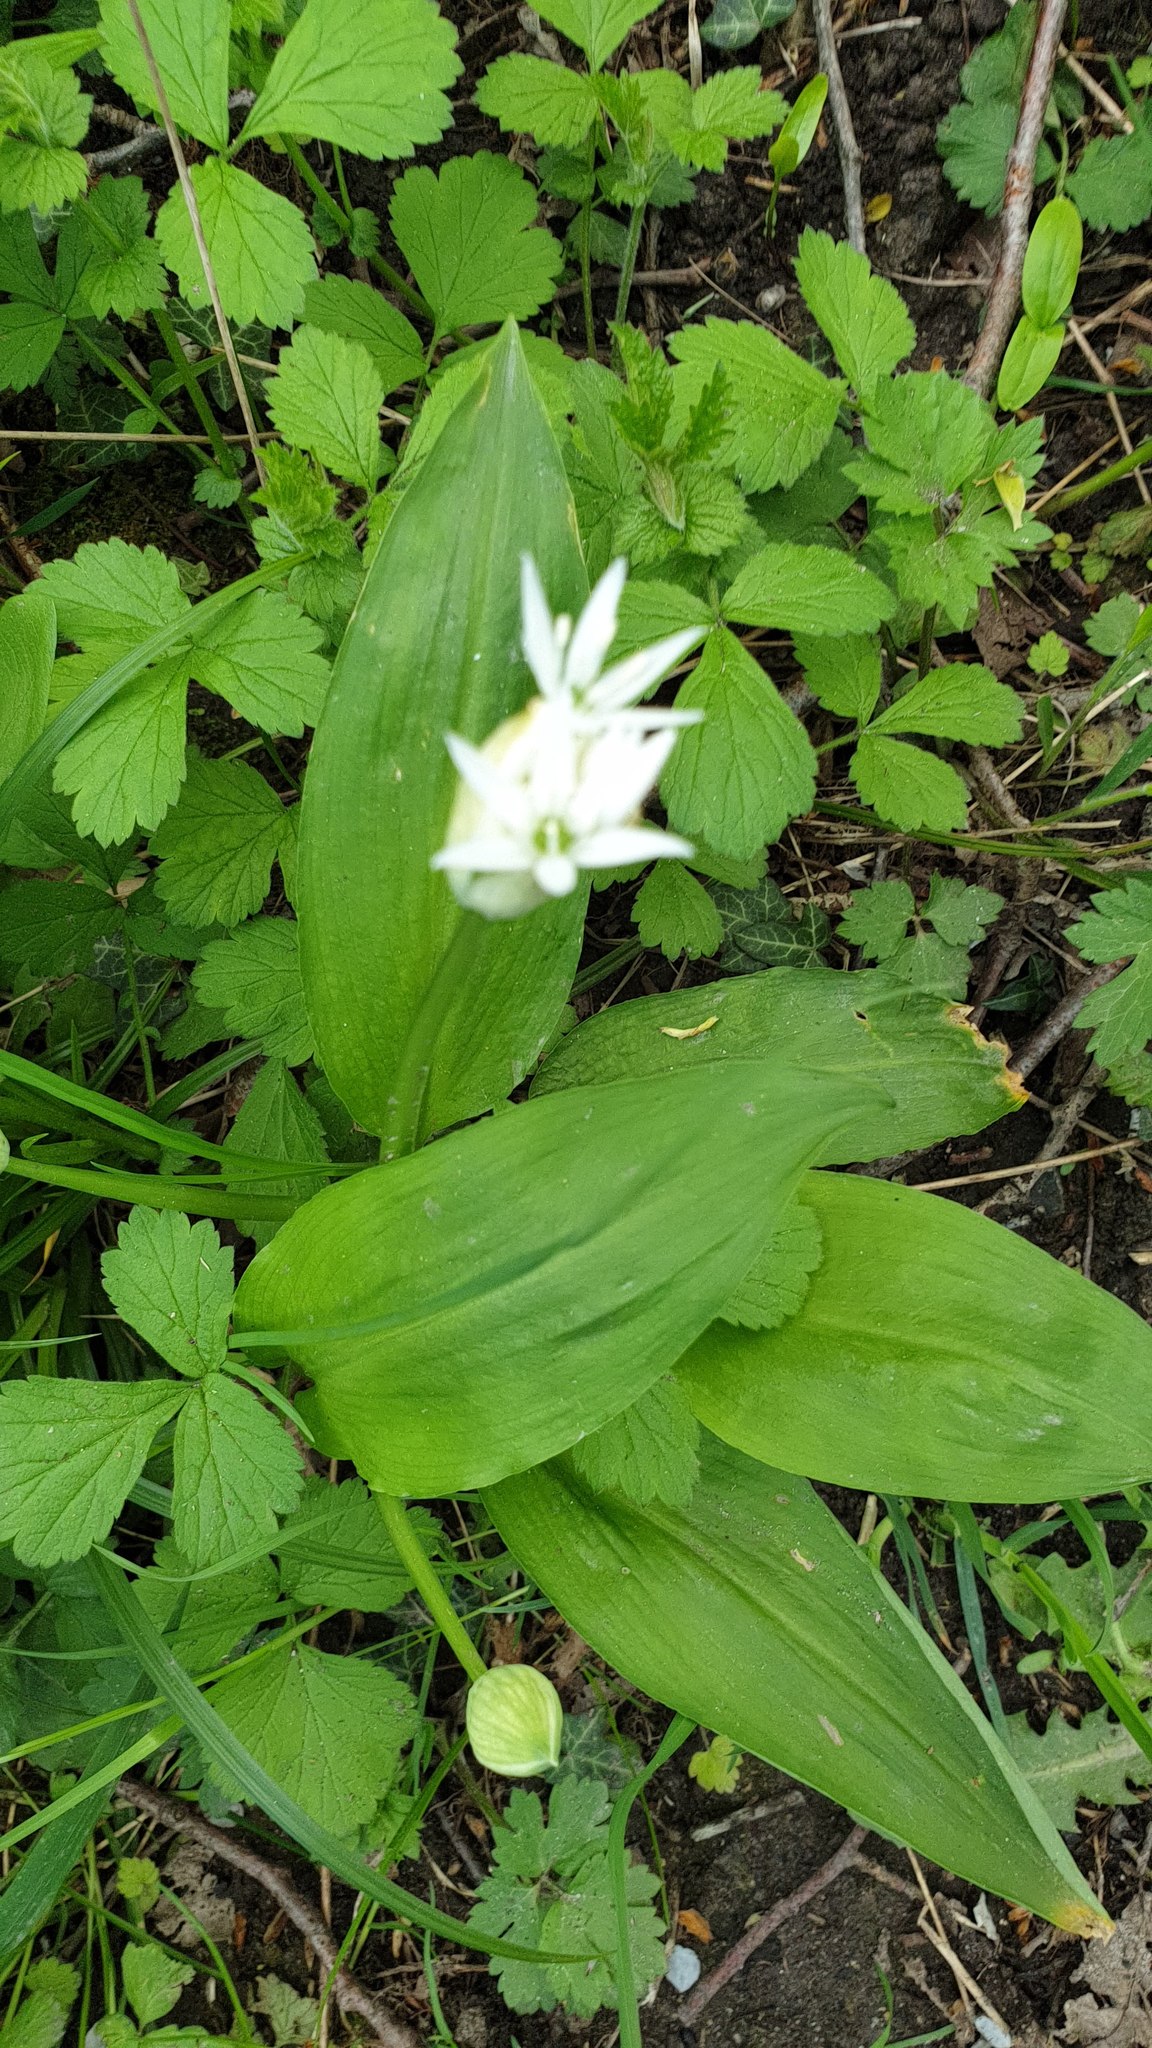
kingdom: Plantae
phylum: Tracheophyta
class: Liliopsida
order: Asparagales
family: Amaryllidaceae
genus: Allium
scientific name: Allium ursinum
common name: Ramsons
